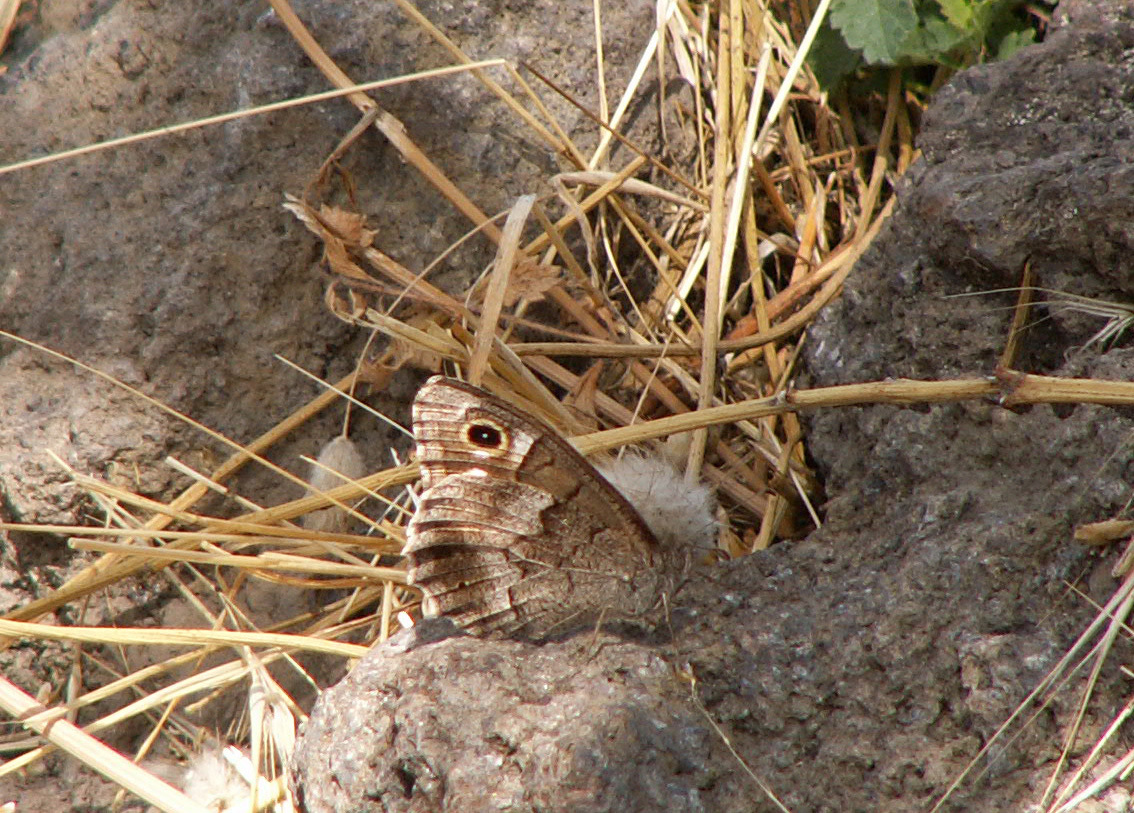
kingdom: Animalia
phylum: Arthropoda
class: Insecta
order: Lepidoptera
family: Nymphalidae
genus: Hipparchia
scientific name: Hipparchia statilinus
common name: Tree grayling
